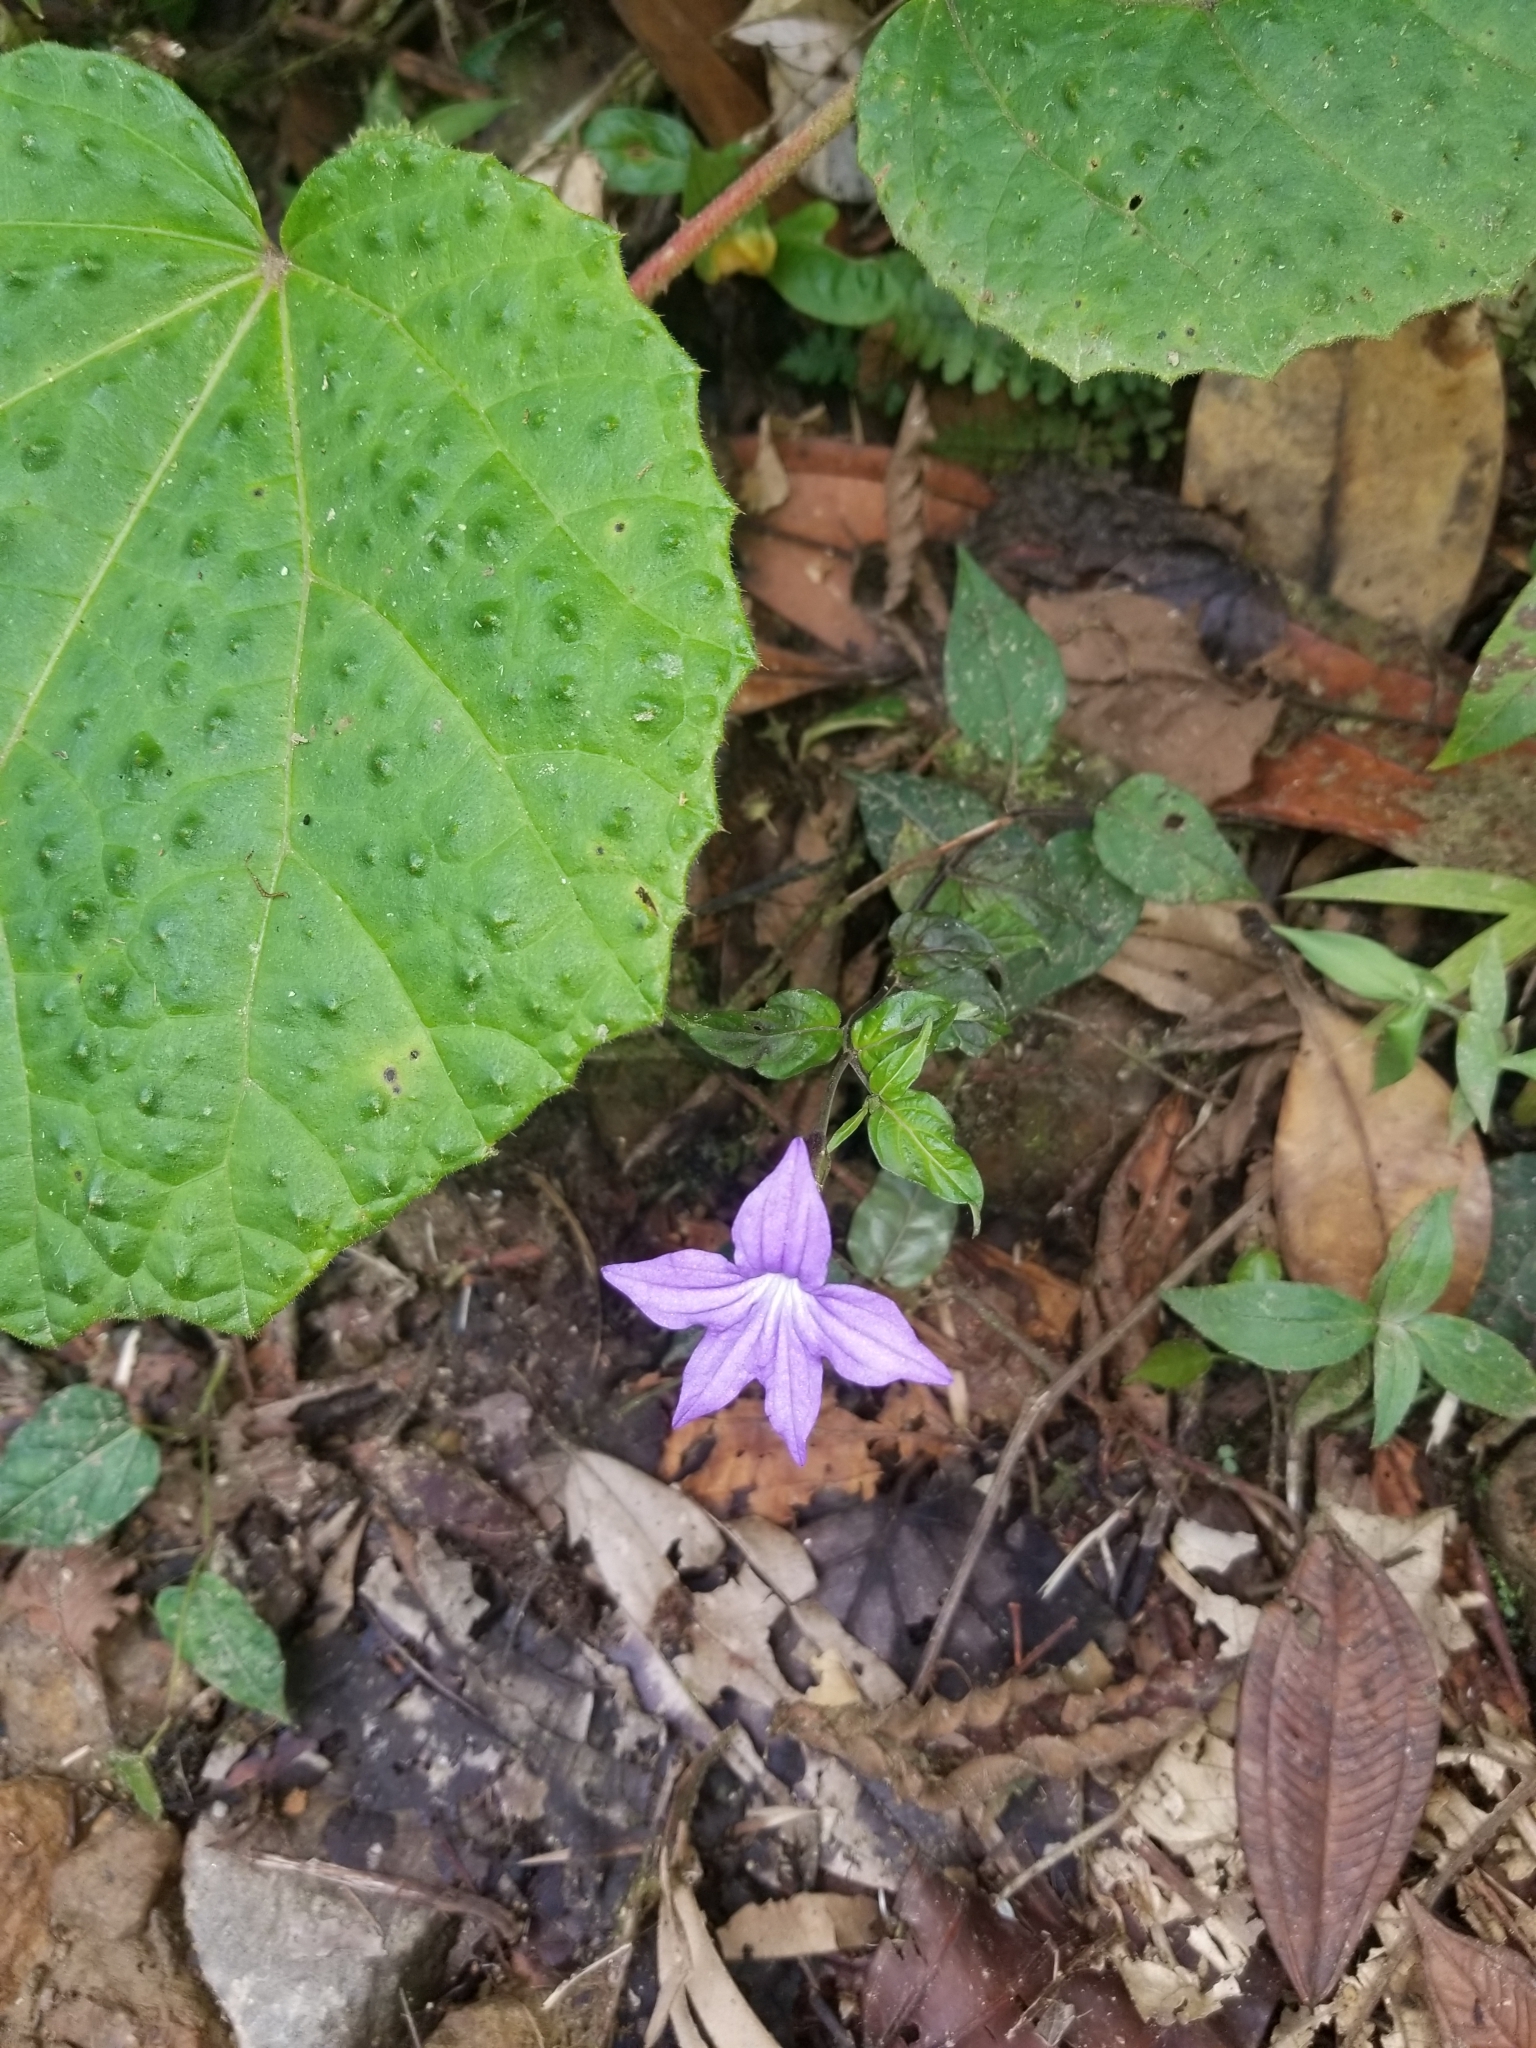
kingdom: Plantae
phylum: Tracheophyta
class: Magnoliopsida
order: Solanales
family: Solanaceae
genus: Browallia
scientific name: Browallia speciosa
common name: Bush-violet
